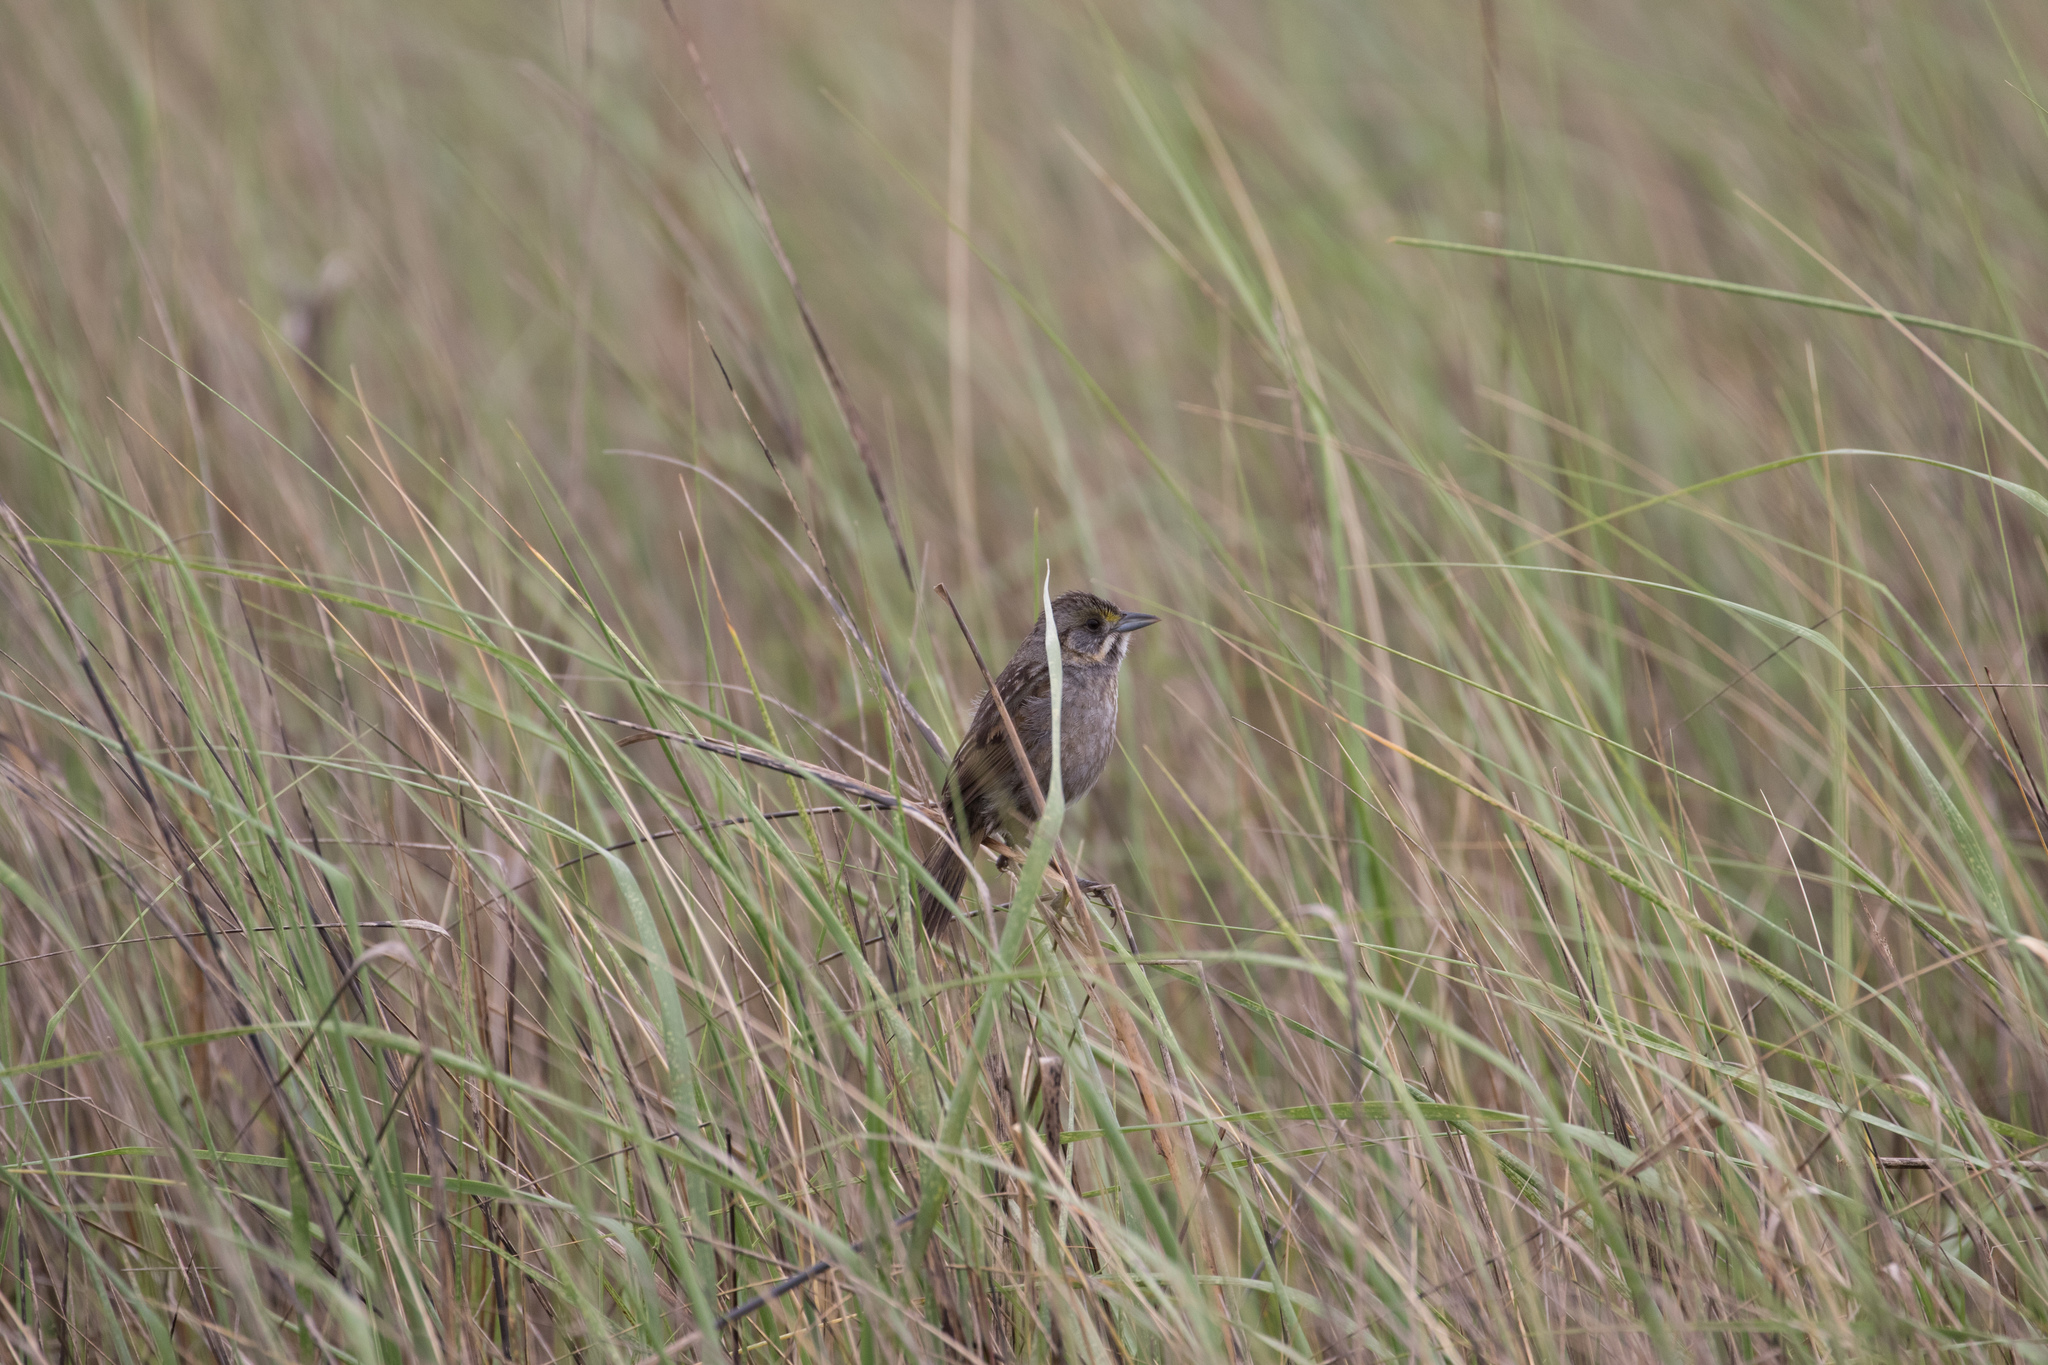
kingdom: Animalia
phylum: Chordata
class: Aves
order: Passeriformes
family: Passerellidae
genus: Ammospiza
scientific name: Ammospiza maritima
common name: Seaside sparrow
